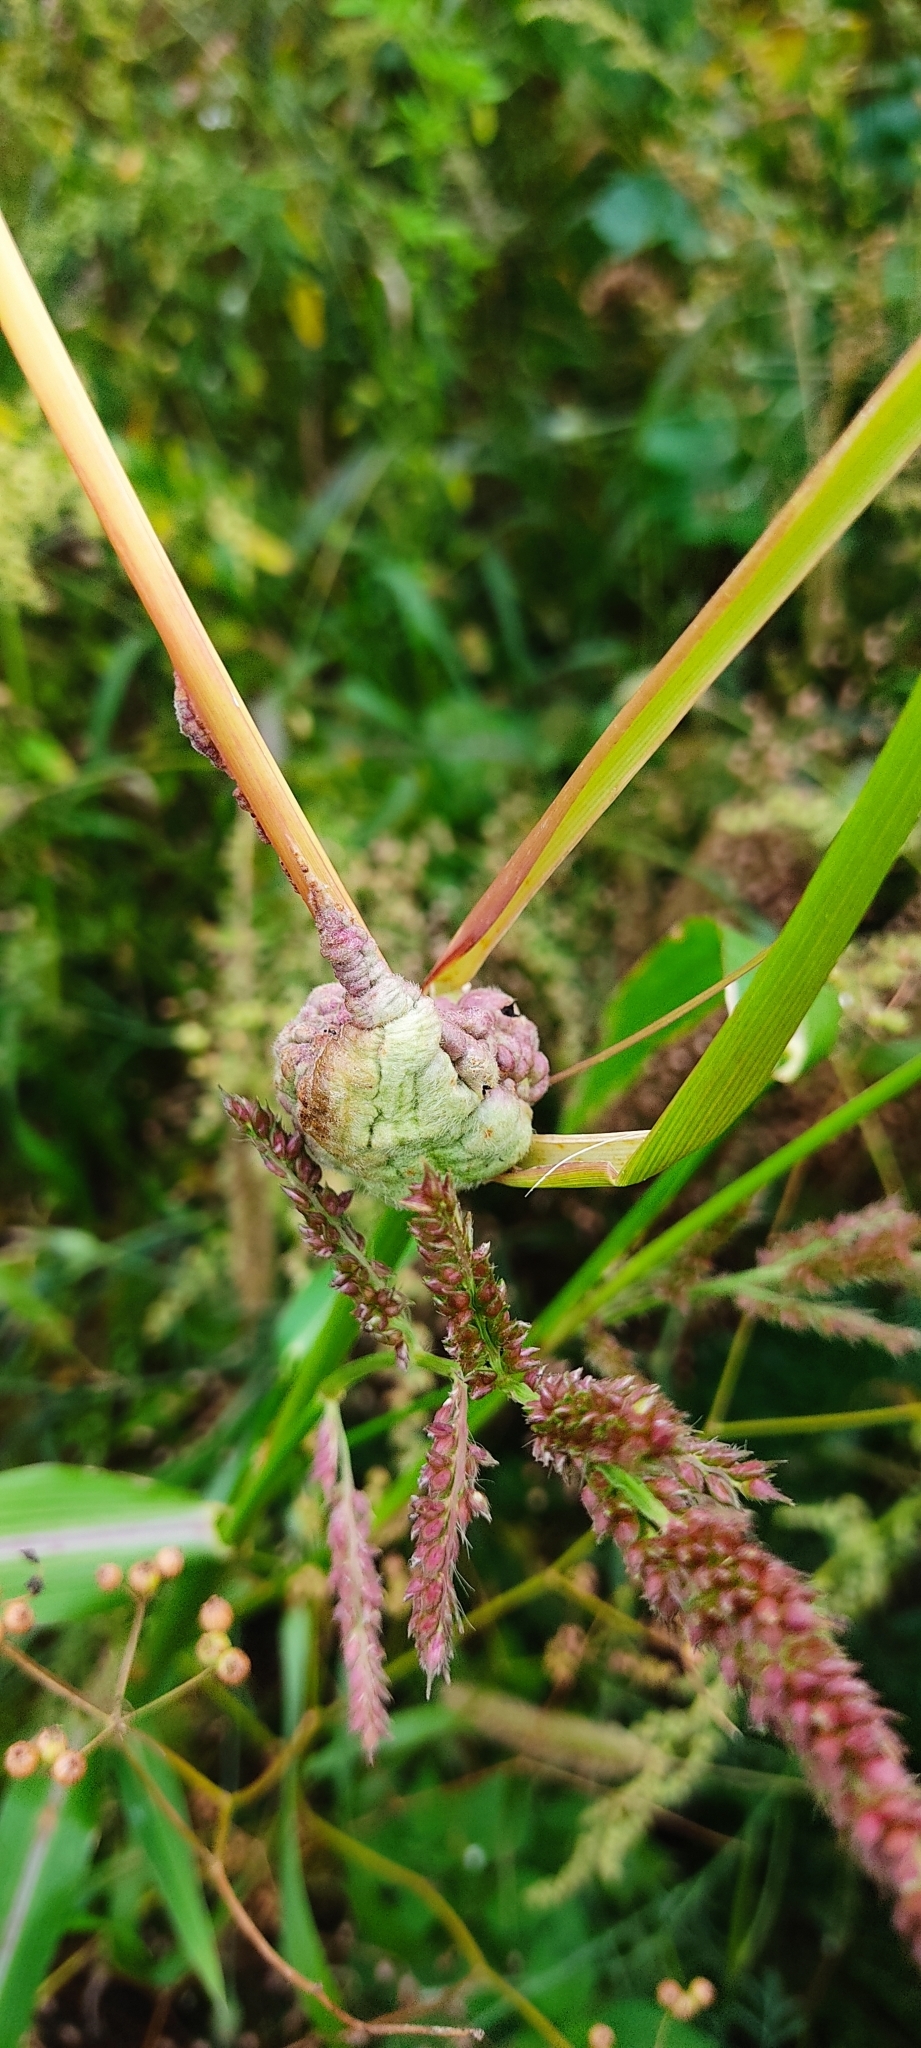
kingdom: Fungi
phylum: Basidiomycota
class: Ustilaginomycetes
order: Ustilaginales
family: Ustilaginaceae
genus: Ustilago
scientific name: Ustilago trichophora
